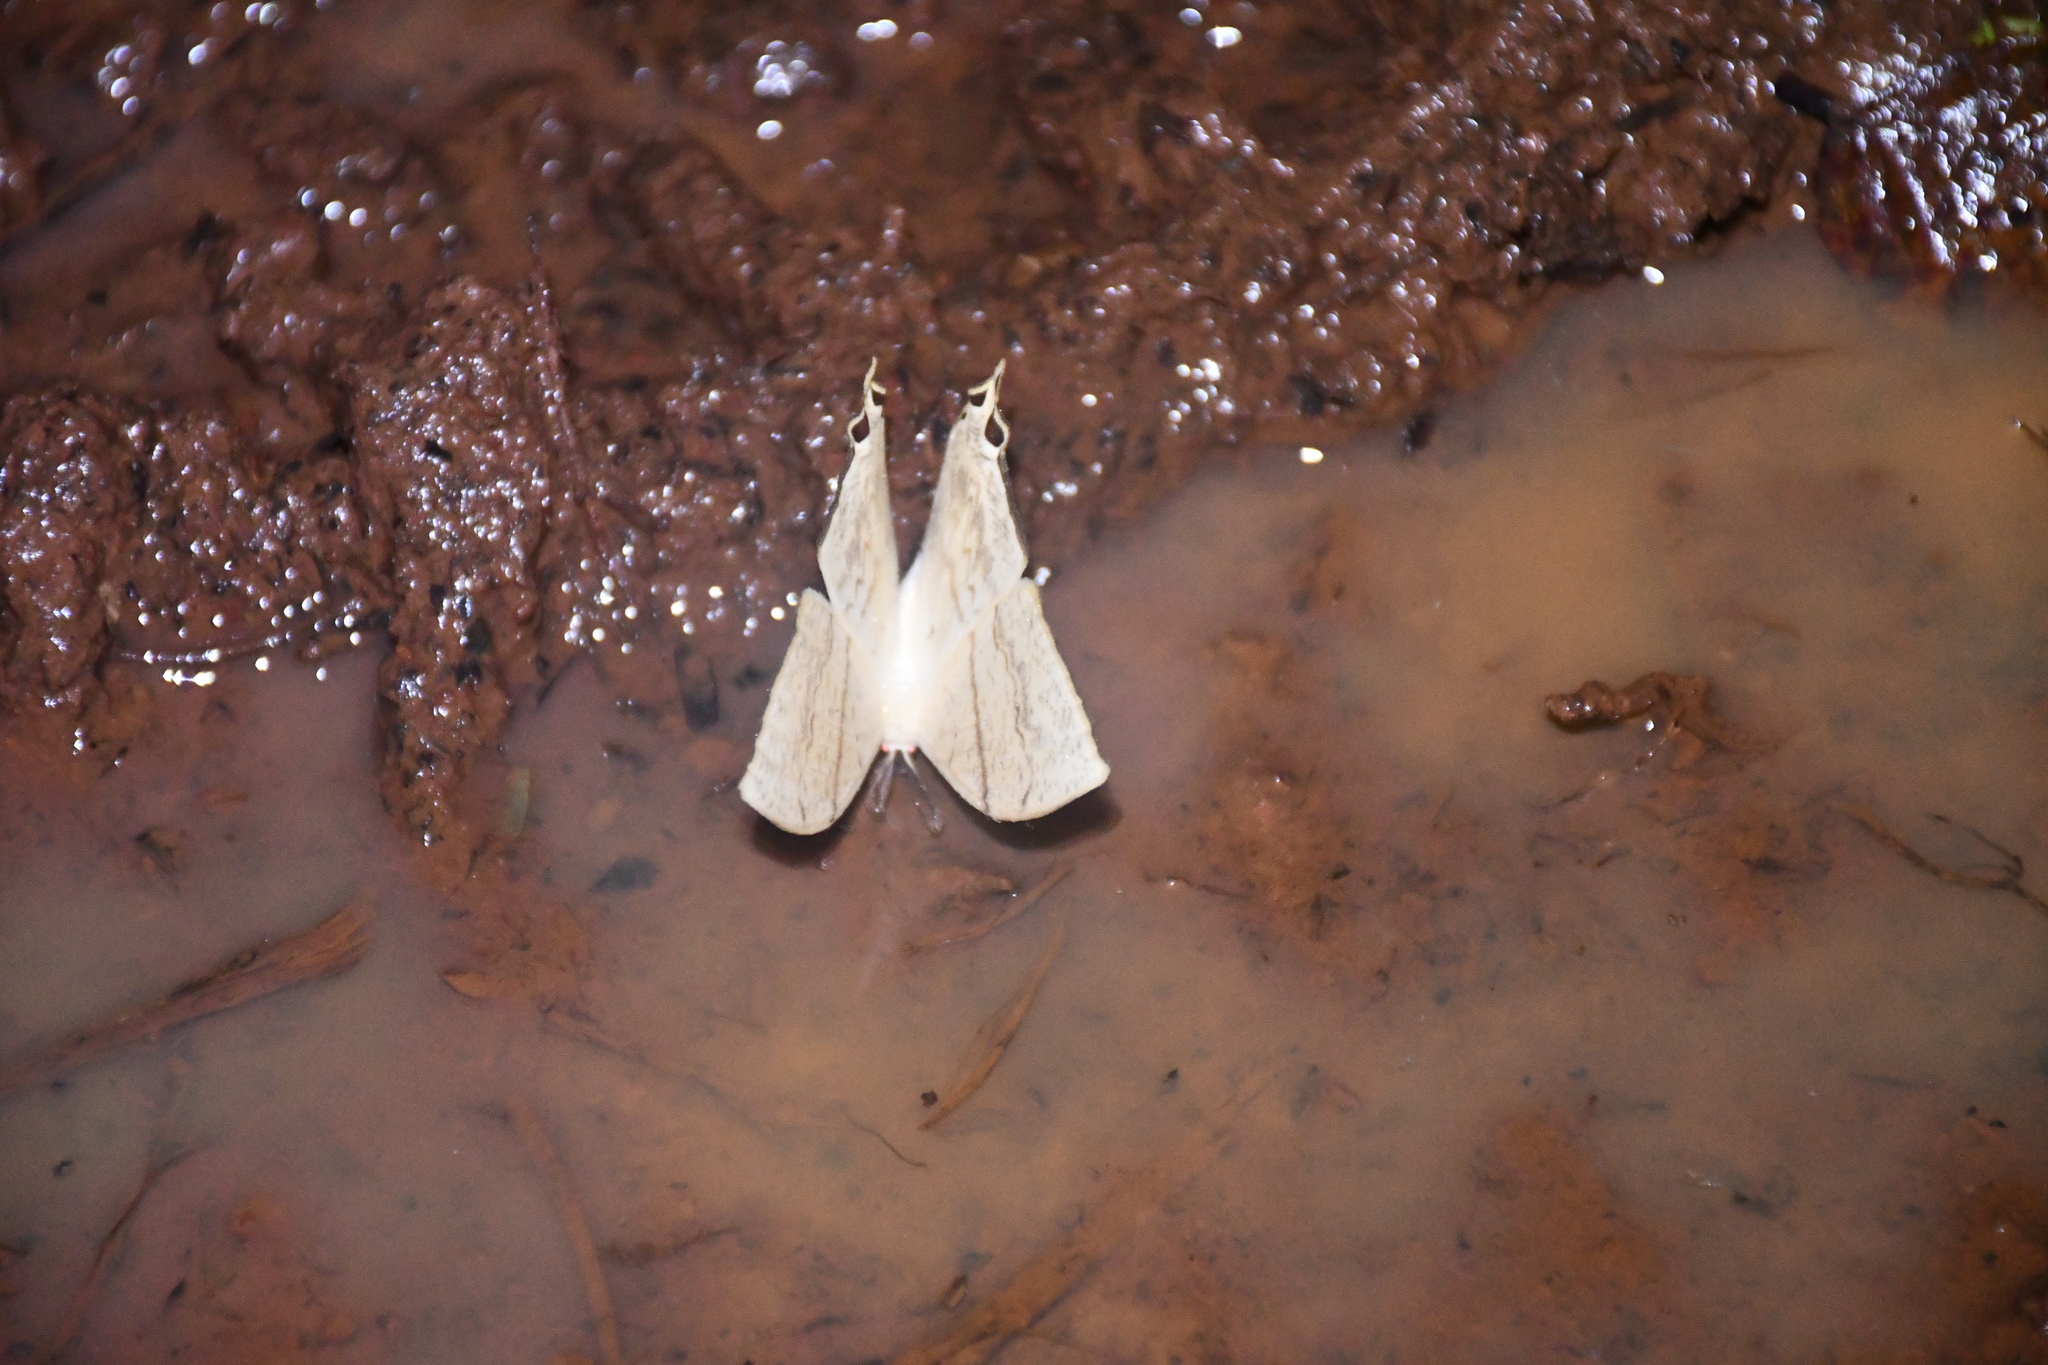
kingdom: Animalia
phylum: Arthropoda
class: Insecta
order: Lepidoptera
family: Saturniidae
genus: Therinia
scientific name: Therinia lactucina
